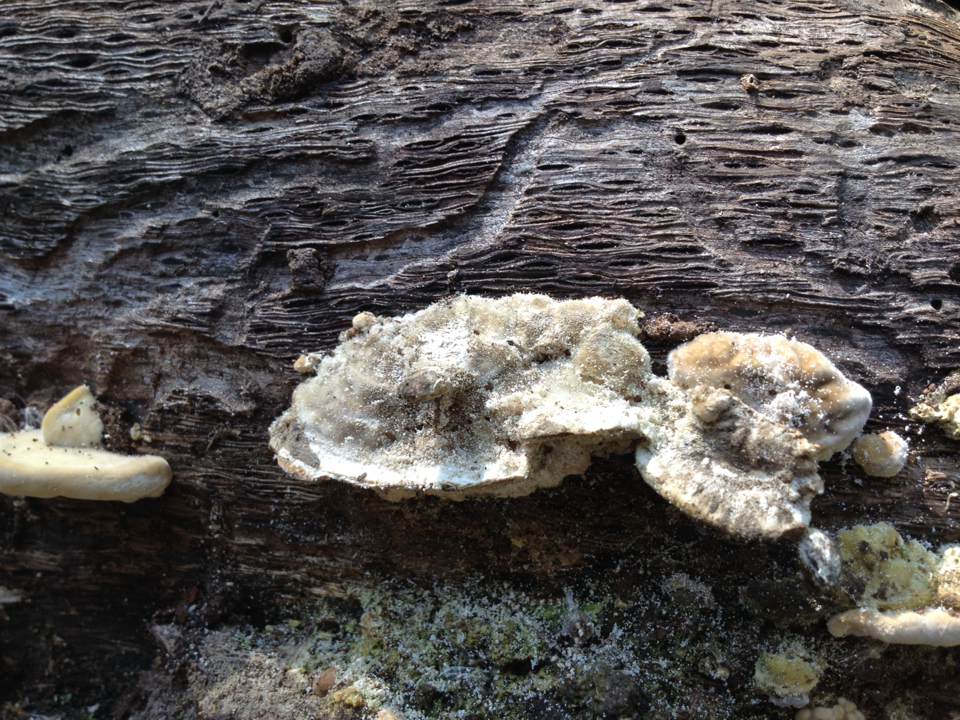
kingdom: Fungi
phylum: Basidiomycota
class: Agaricomycetes
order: Polyporales
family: Polyporaceae
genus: Lenzites
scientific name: Lenzites betulinus
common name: Birch mazegill
